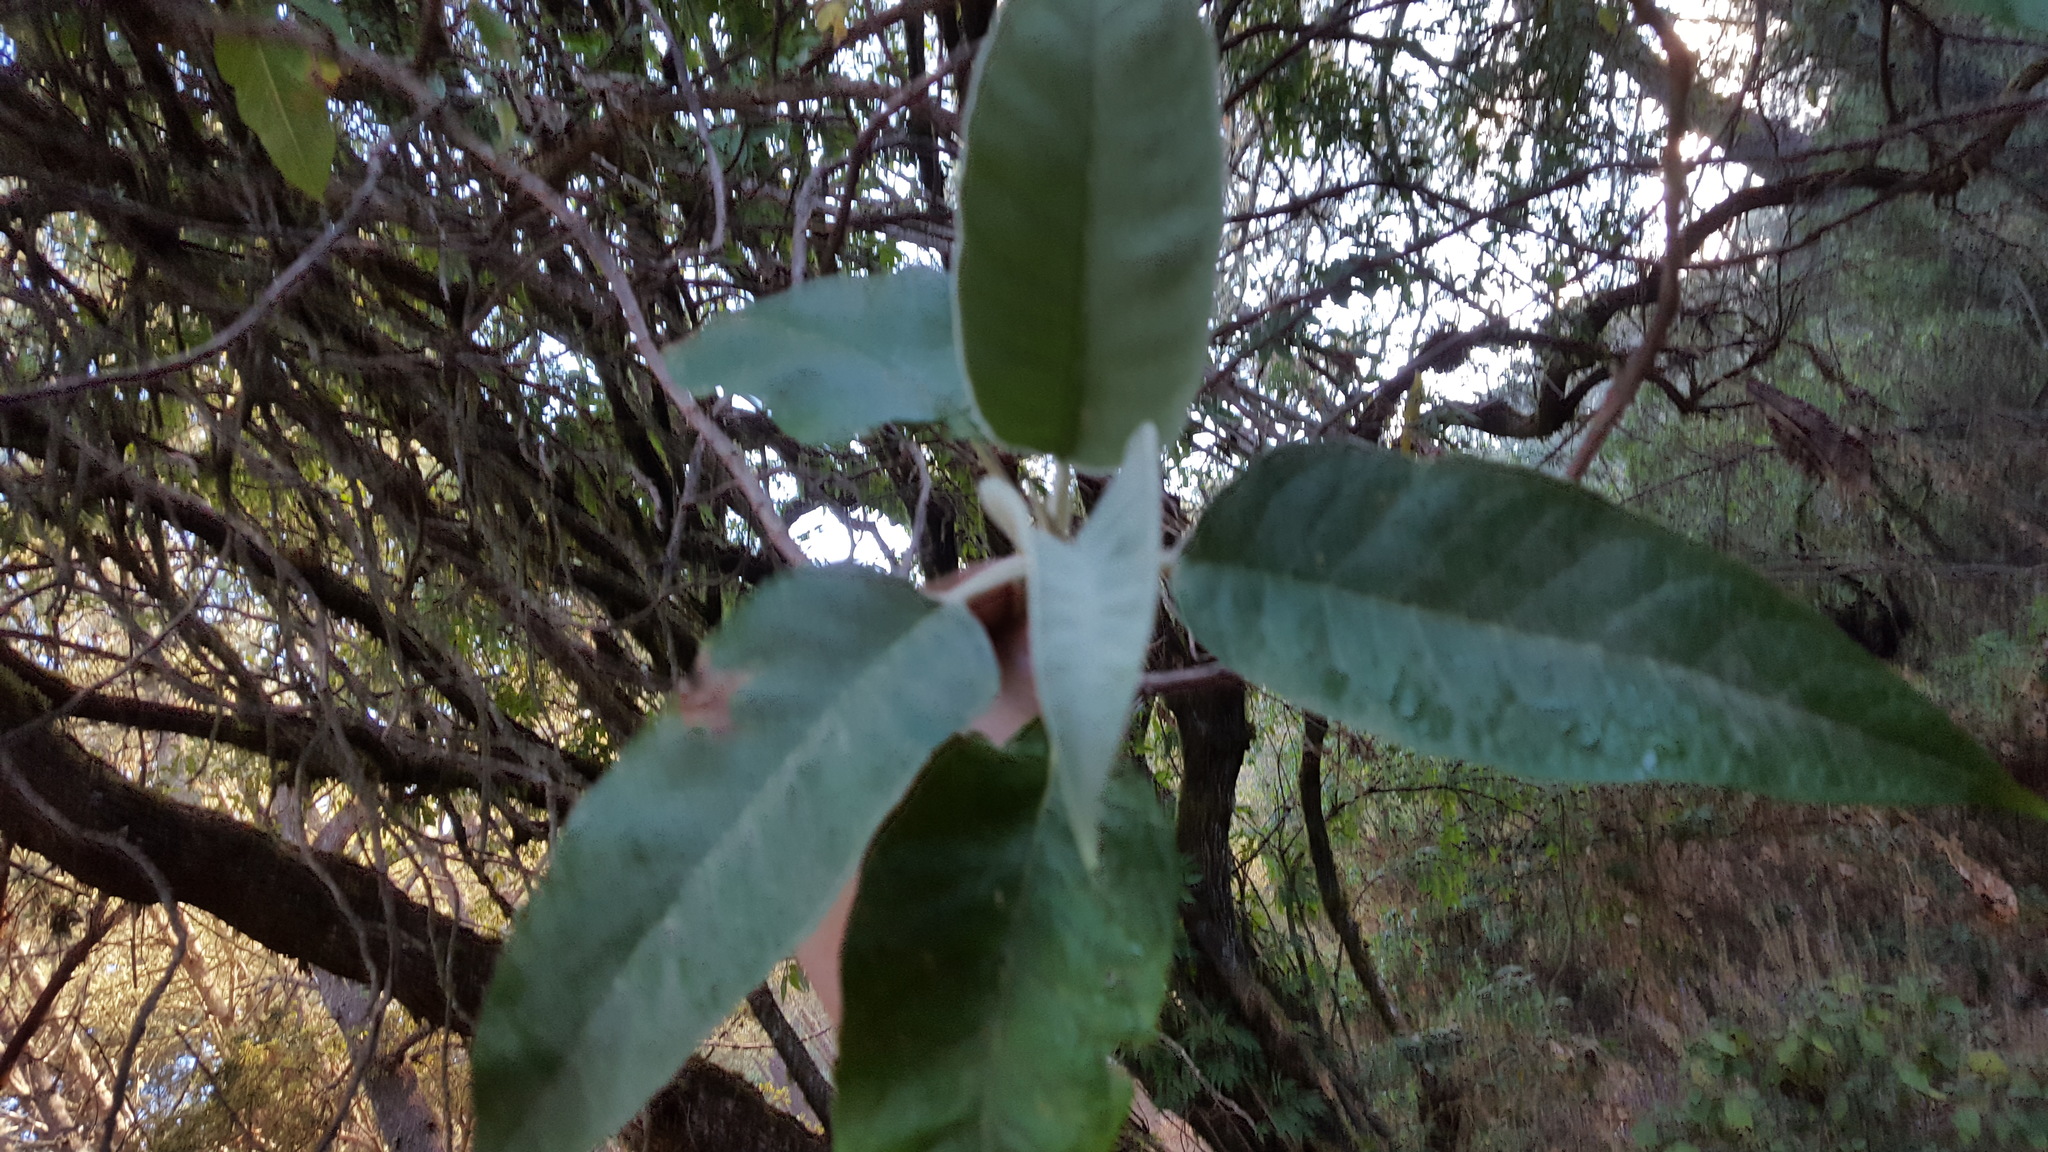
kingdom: Plantae
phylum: Tracheophyta
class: Magnoliopsida
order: Lamiales
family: Scrophulariaceae
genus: Buddleja
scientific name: Buddleja cordata
